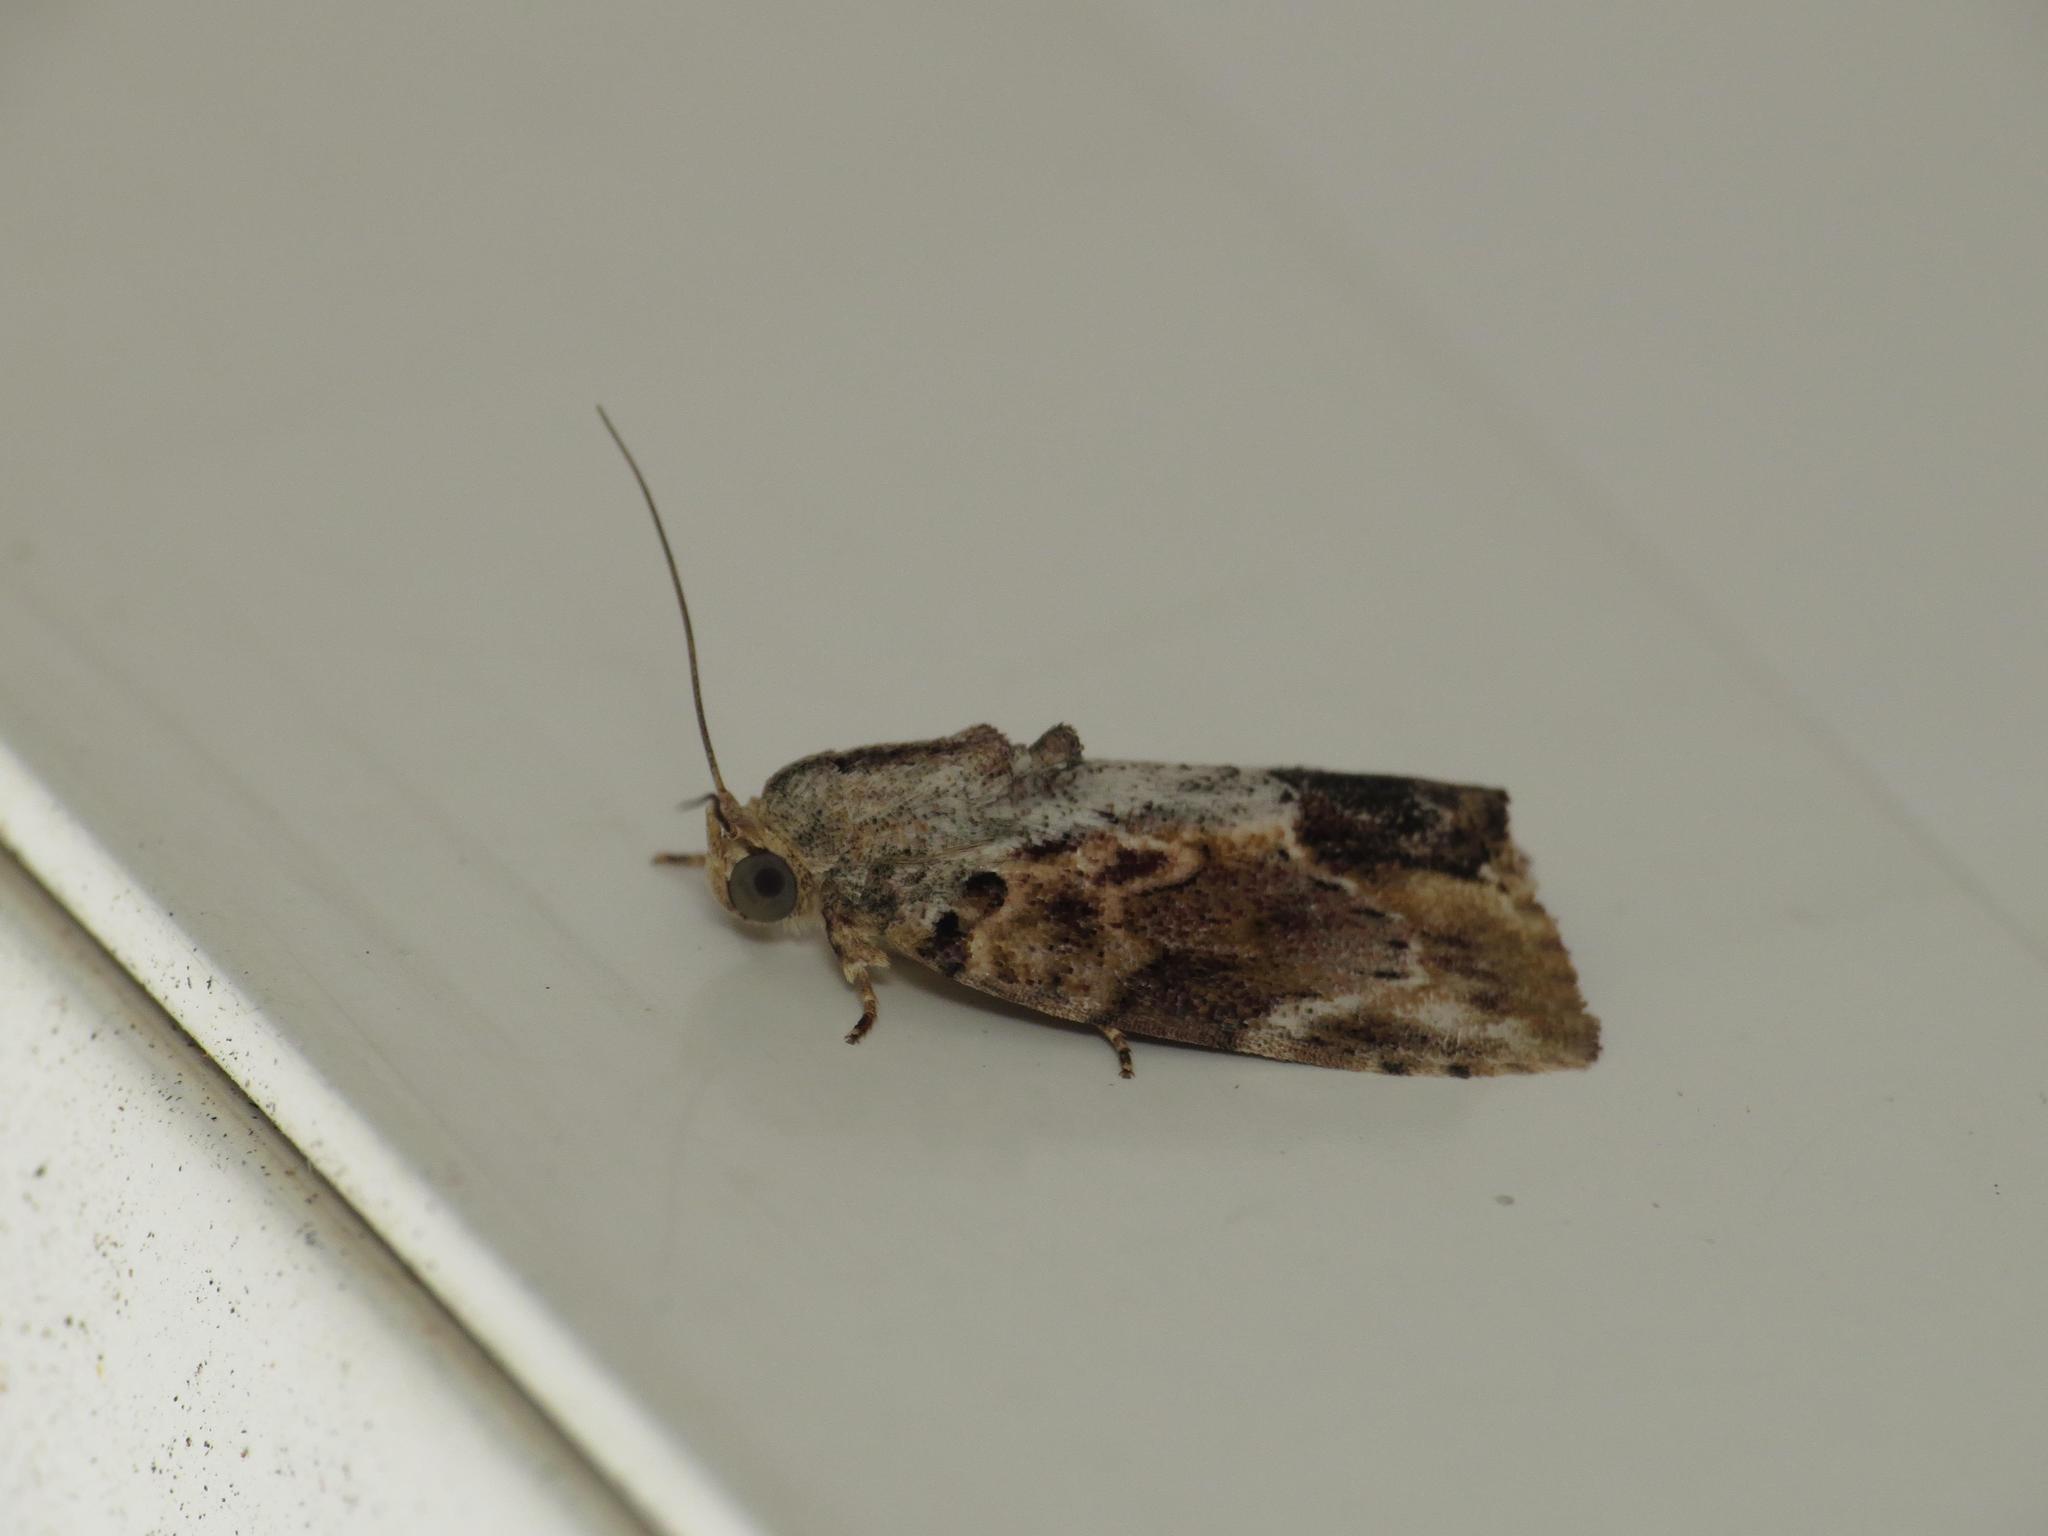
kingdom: Animalia
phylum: Arthropoda
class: Insecta
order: Lepidoptera
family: Nolidae
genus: Etanna
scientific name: Etanna breviuscula
